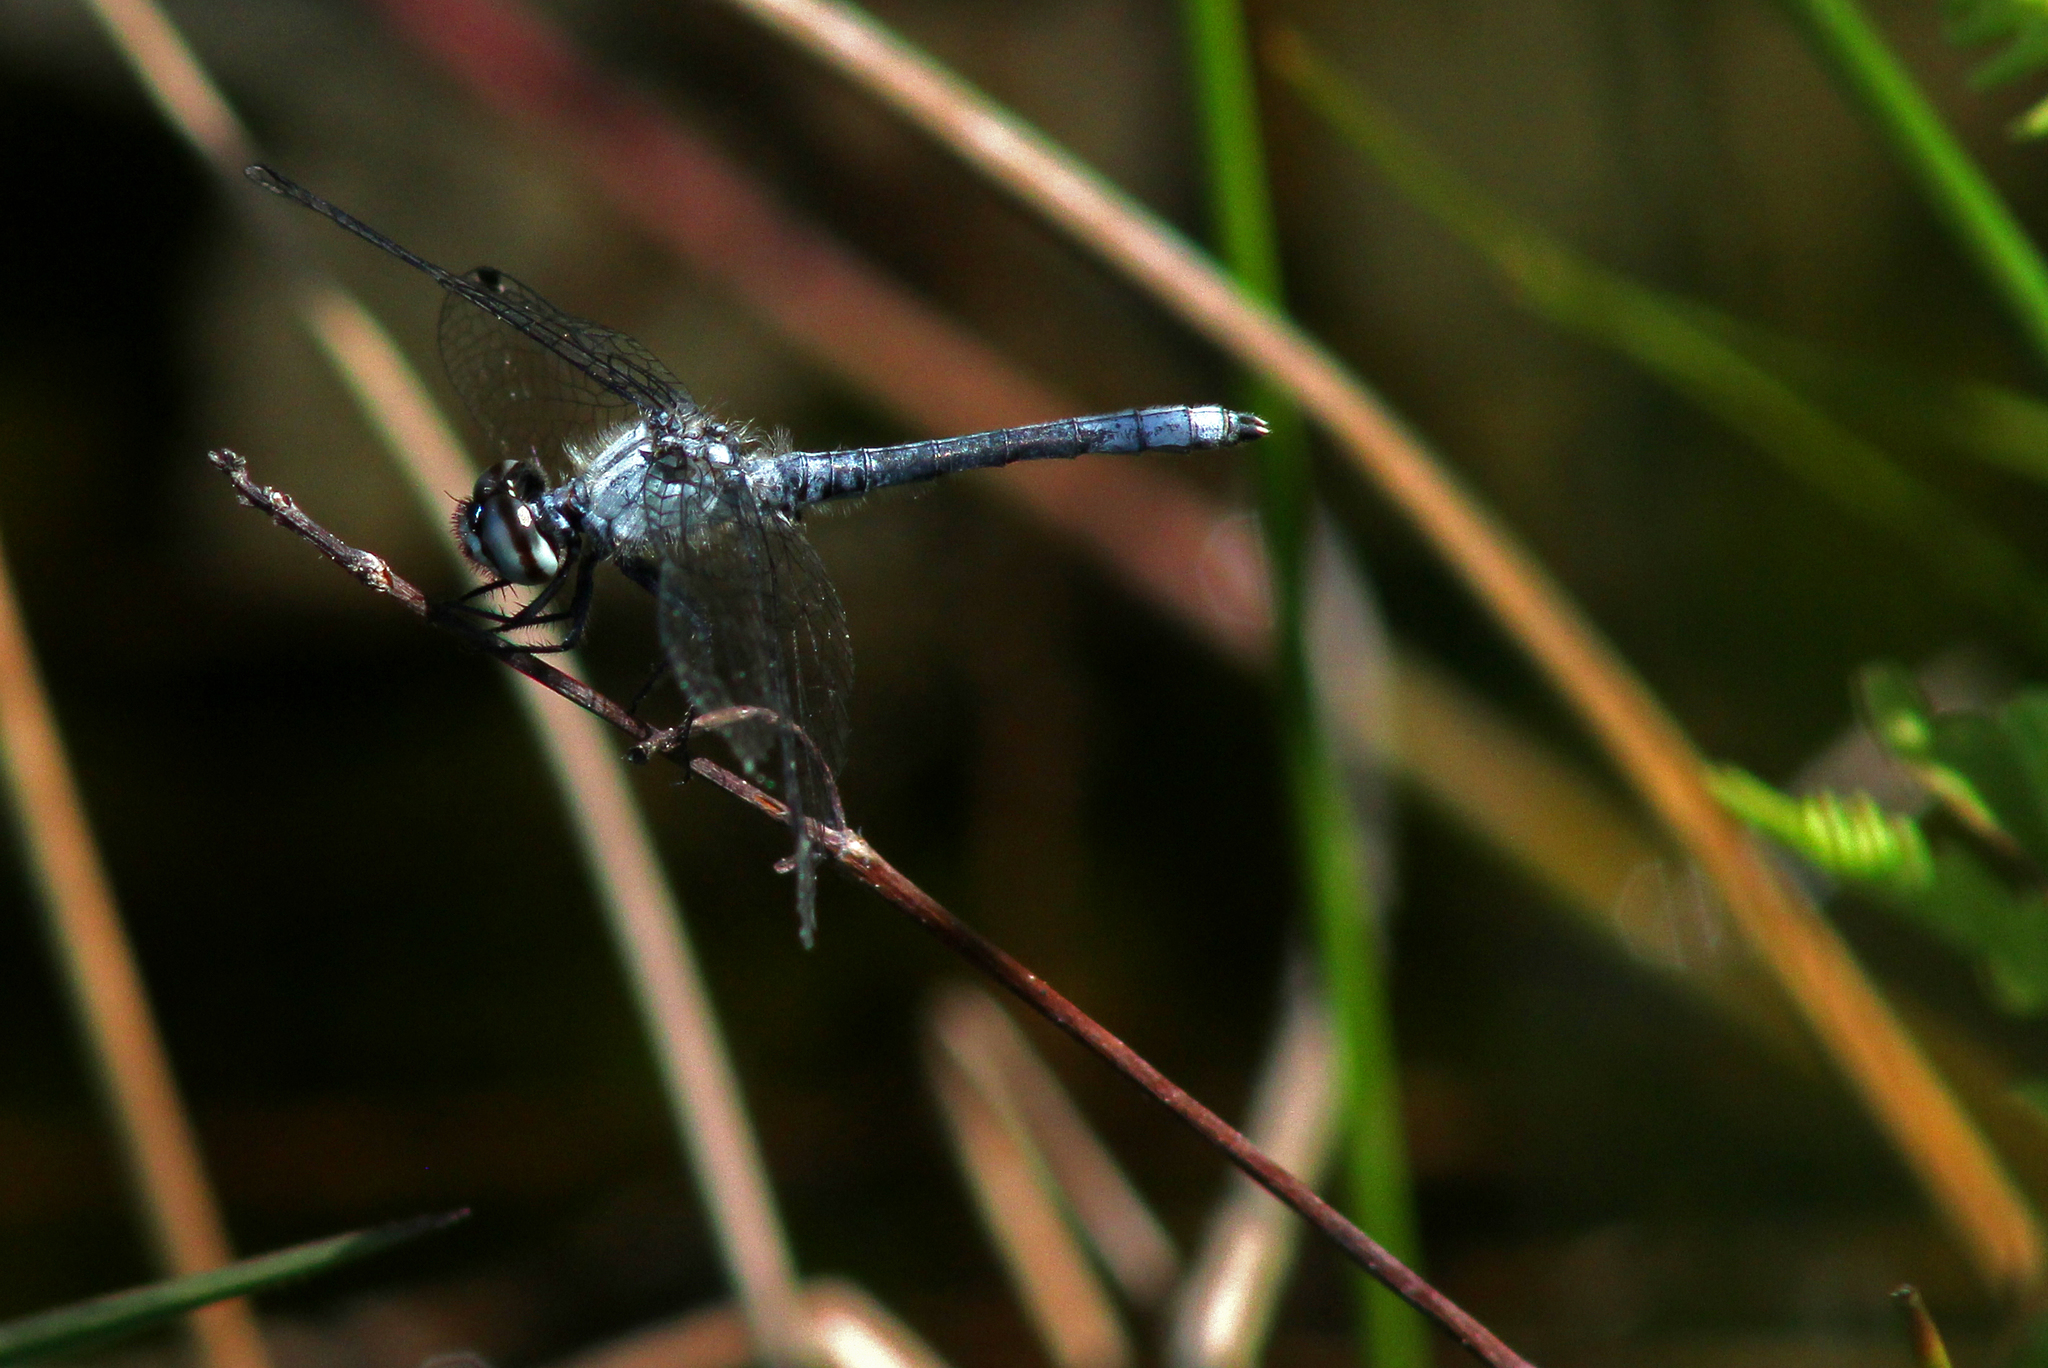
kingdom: Animalia
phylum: Arthropoda
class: Insecta
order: Odonata
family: Libellulidae
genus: Nannothemis
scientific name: Nannothemis bella
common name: Elfin skimmer
